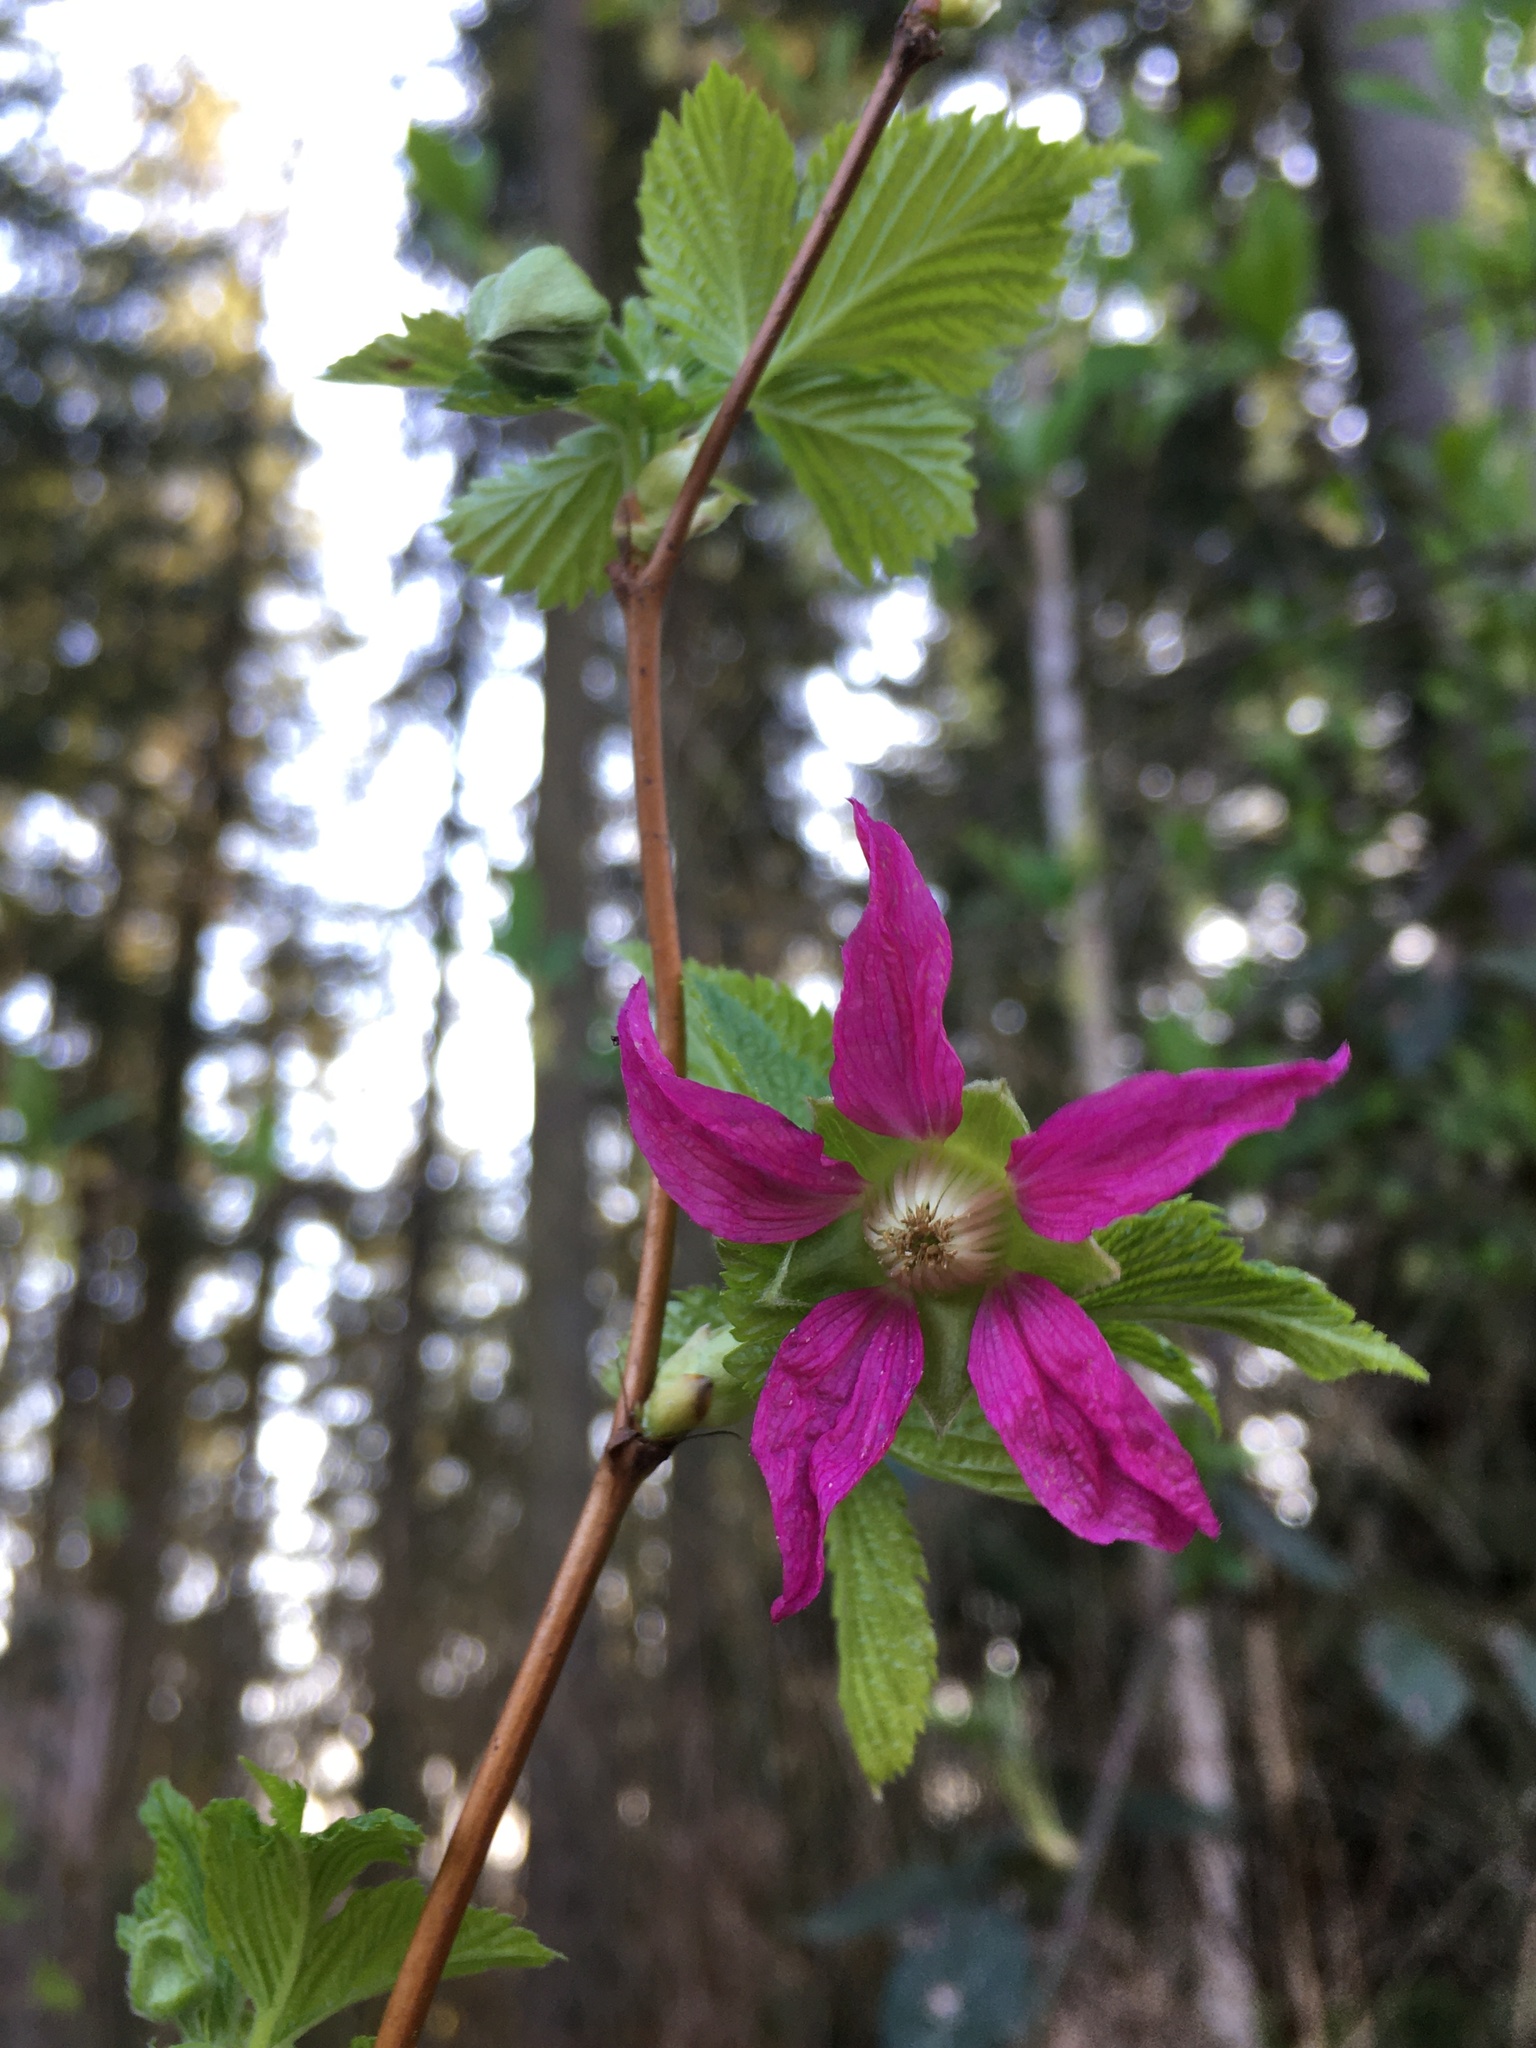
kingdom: Plantae
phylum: Tracheophyta
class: Magnoliopsida
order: Rosales
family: Rosaceae
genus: Rubus
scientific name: Rubus spectabilis
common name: Salmonberry
